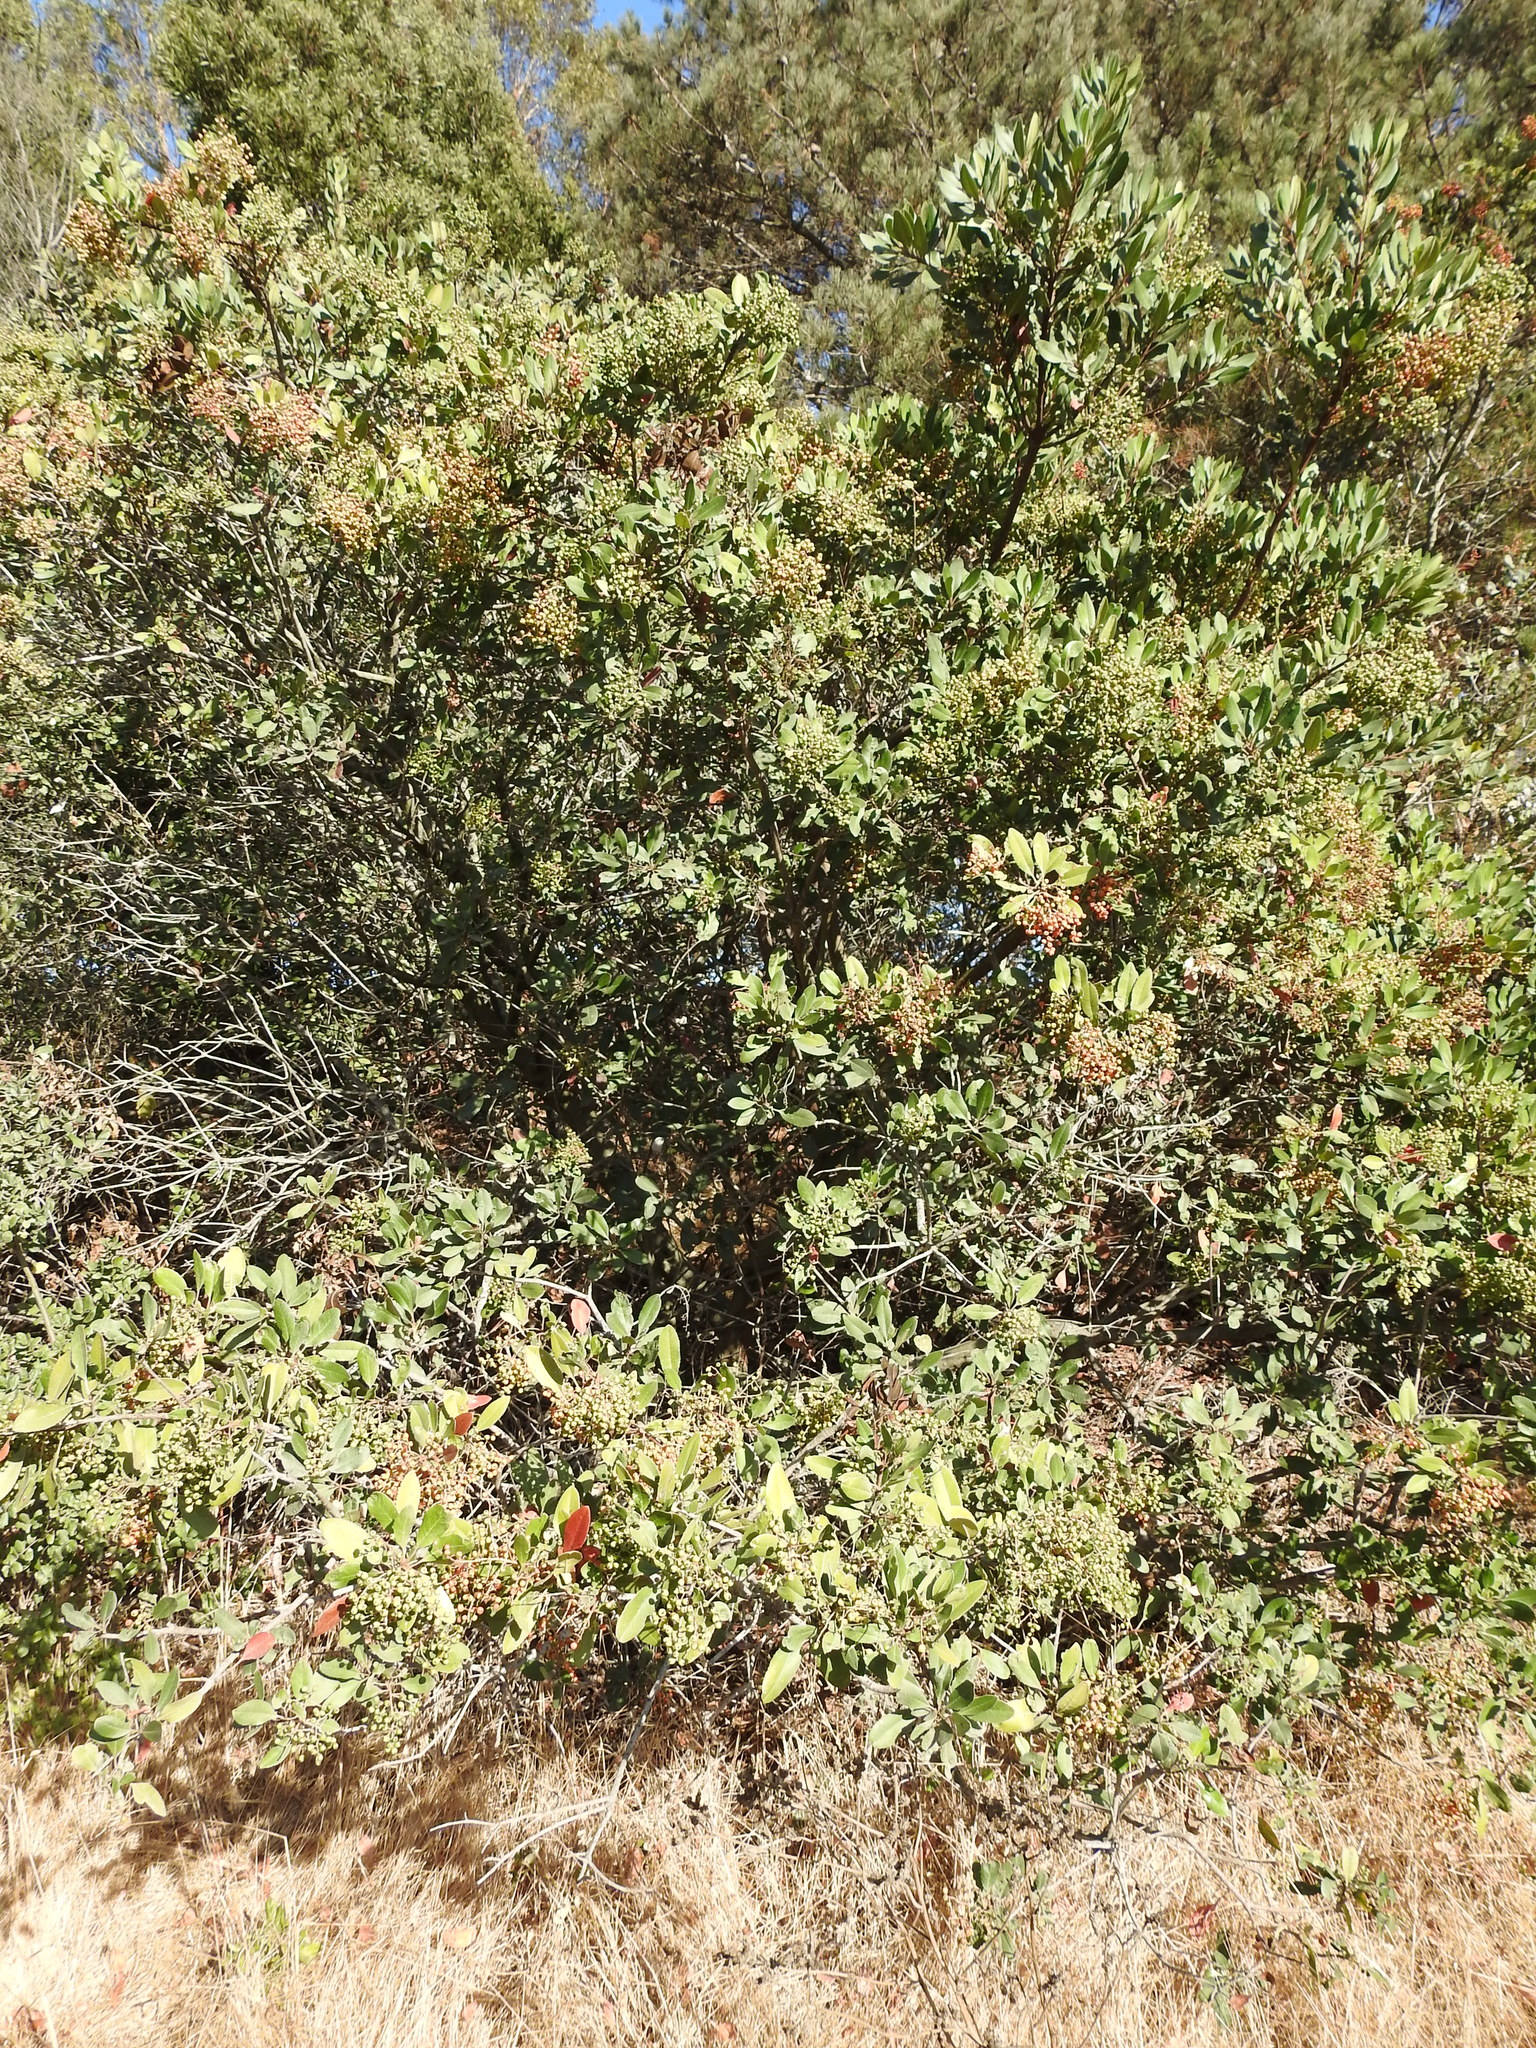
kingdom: Plantae
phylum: Tracheophyta
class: Magnoliopsida
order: Rosales
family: Rosaceae
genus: Heteromeles
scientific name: Heteromeles arbutifolia
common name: California-holly
